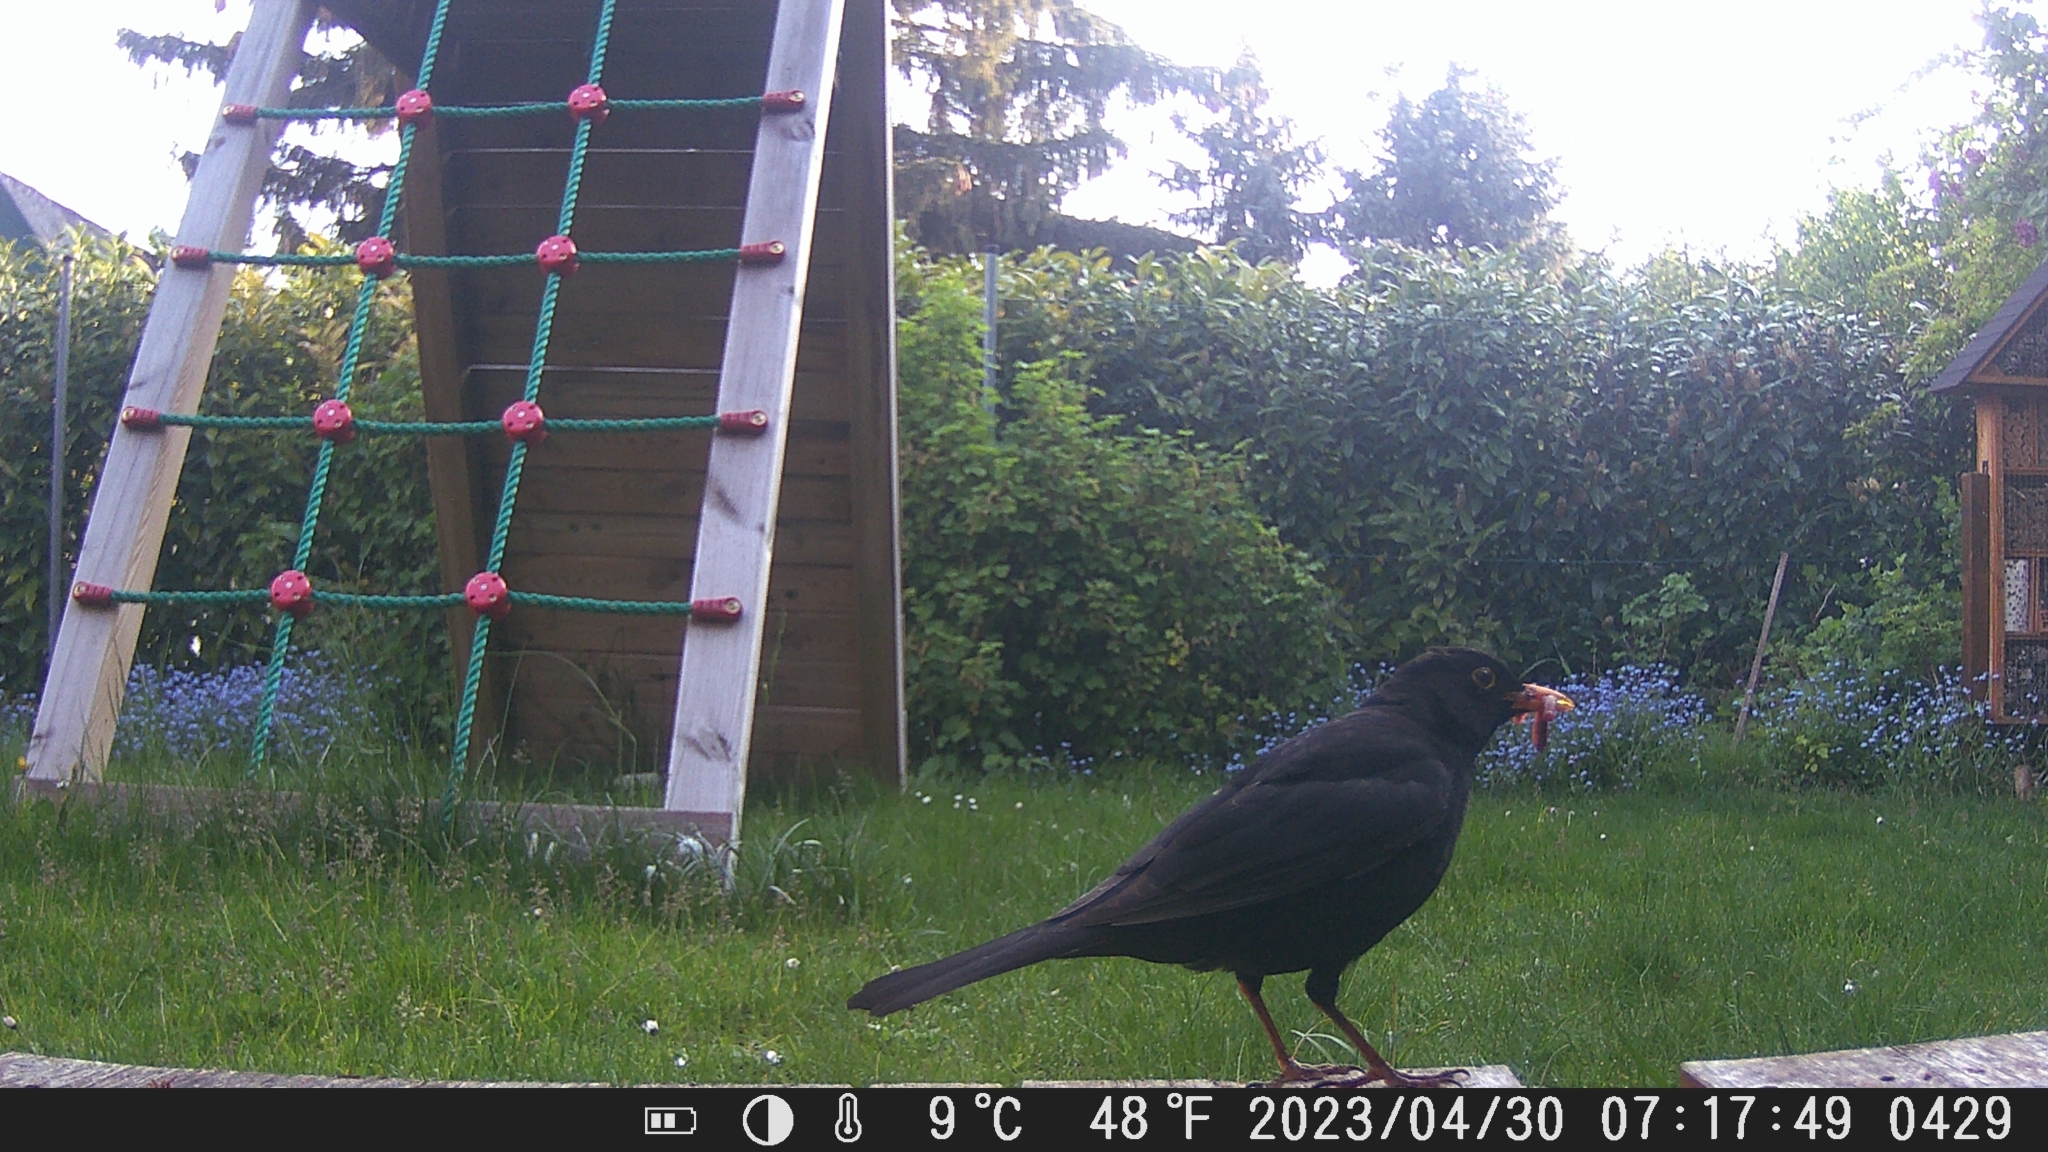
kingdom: Animalia
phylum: Chordata
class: Aves
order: Passeriformes
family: Turdidae
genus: Turdus
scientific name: Turdus merula
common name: Common blackbird
